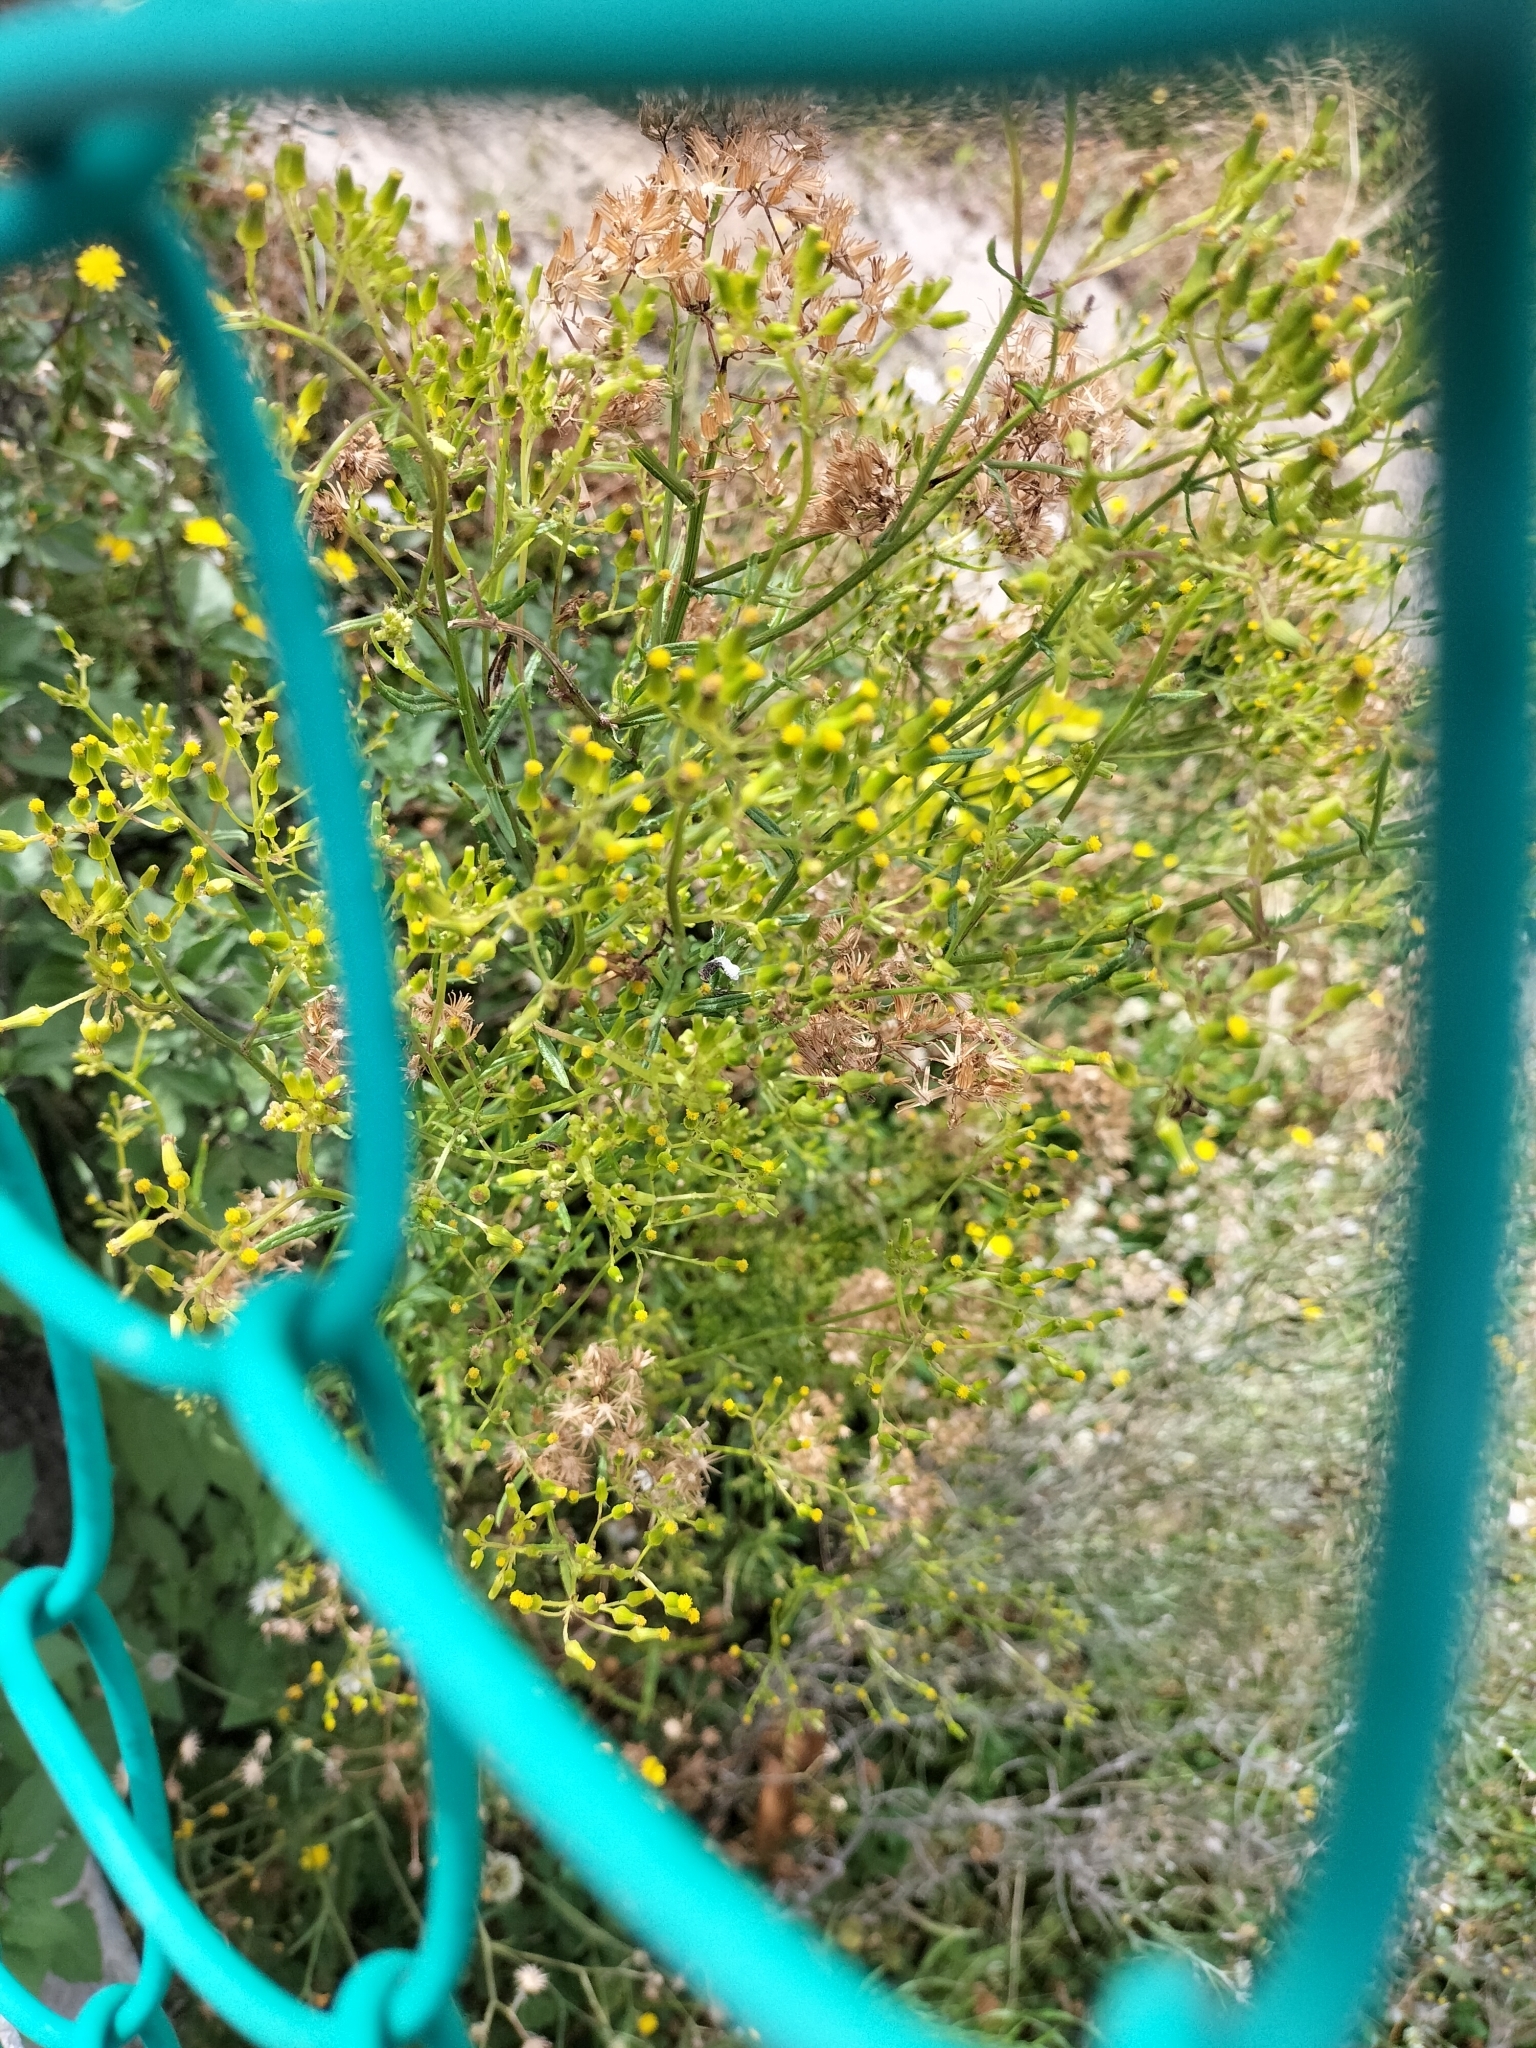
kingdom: Plantae
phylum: Tracheophyta
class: Magnoliopsida
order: Asterales
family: Asteraceae
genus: Senecio
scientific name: Senecio hispidulus
